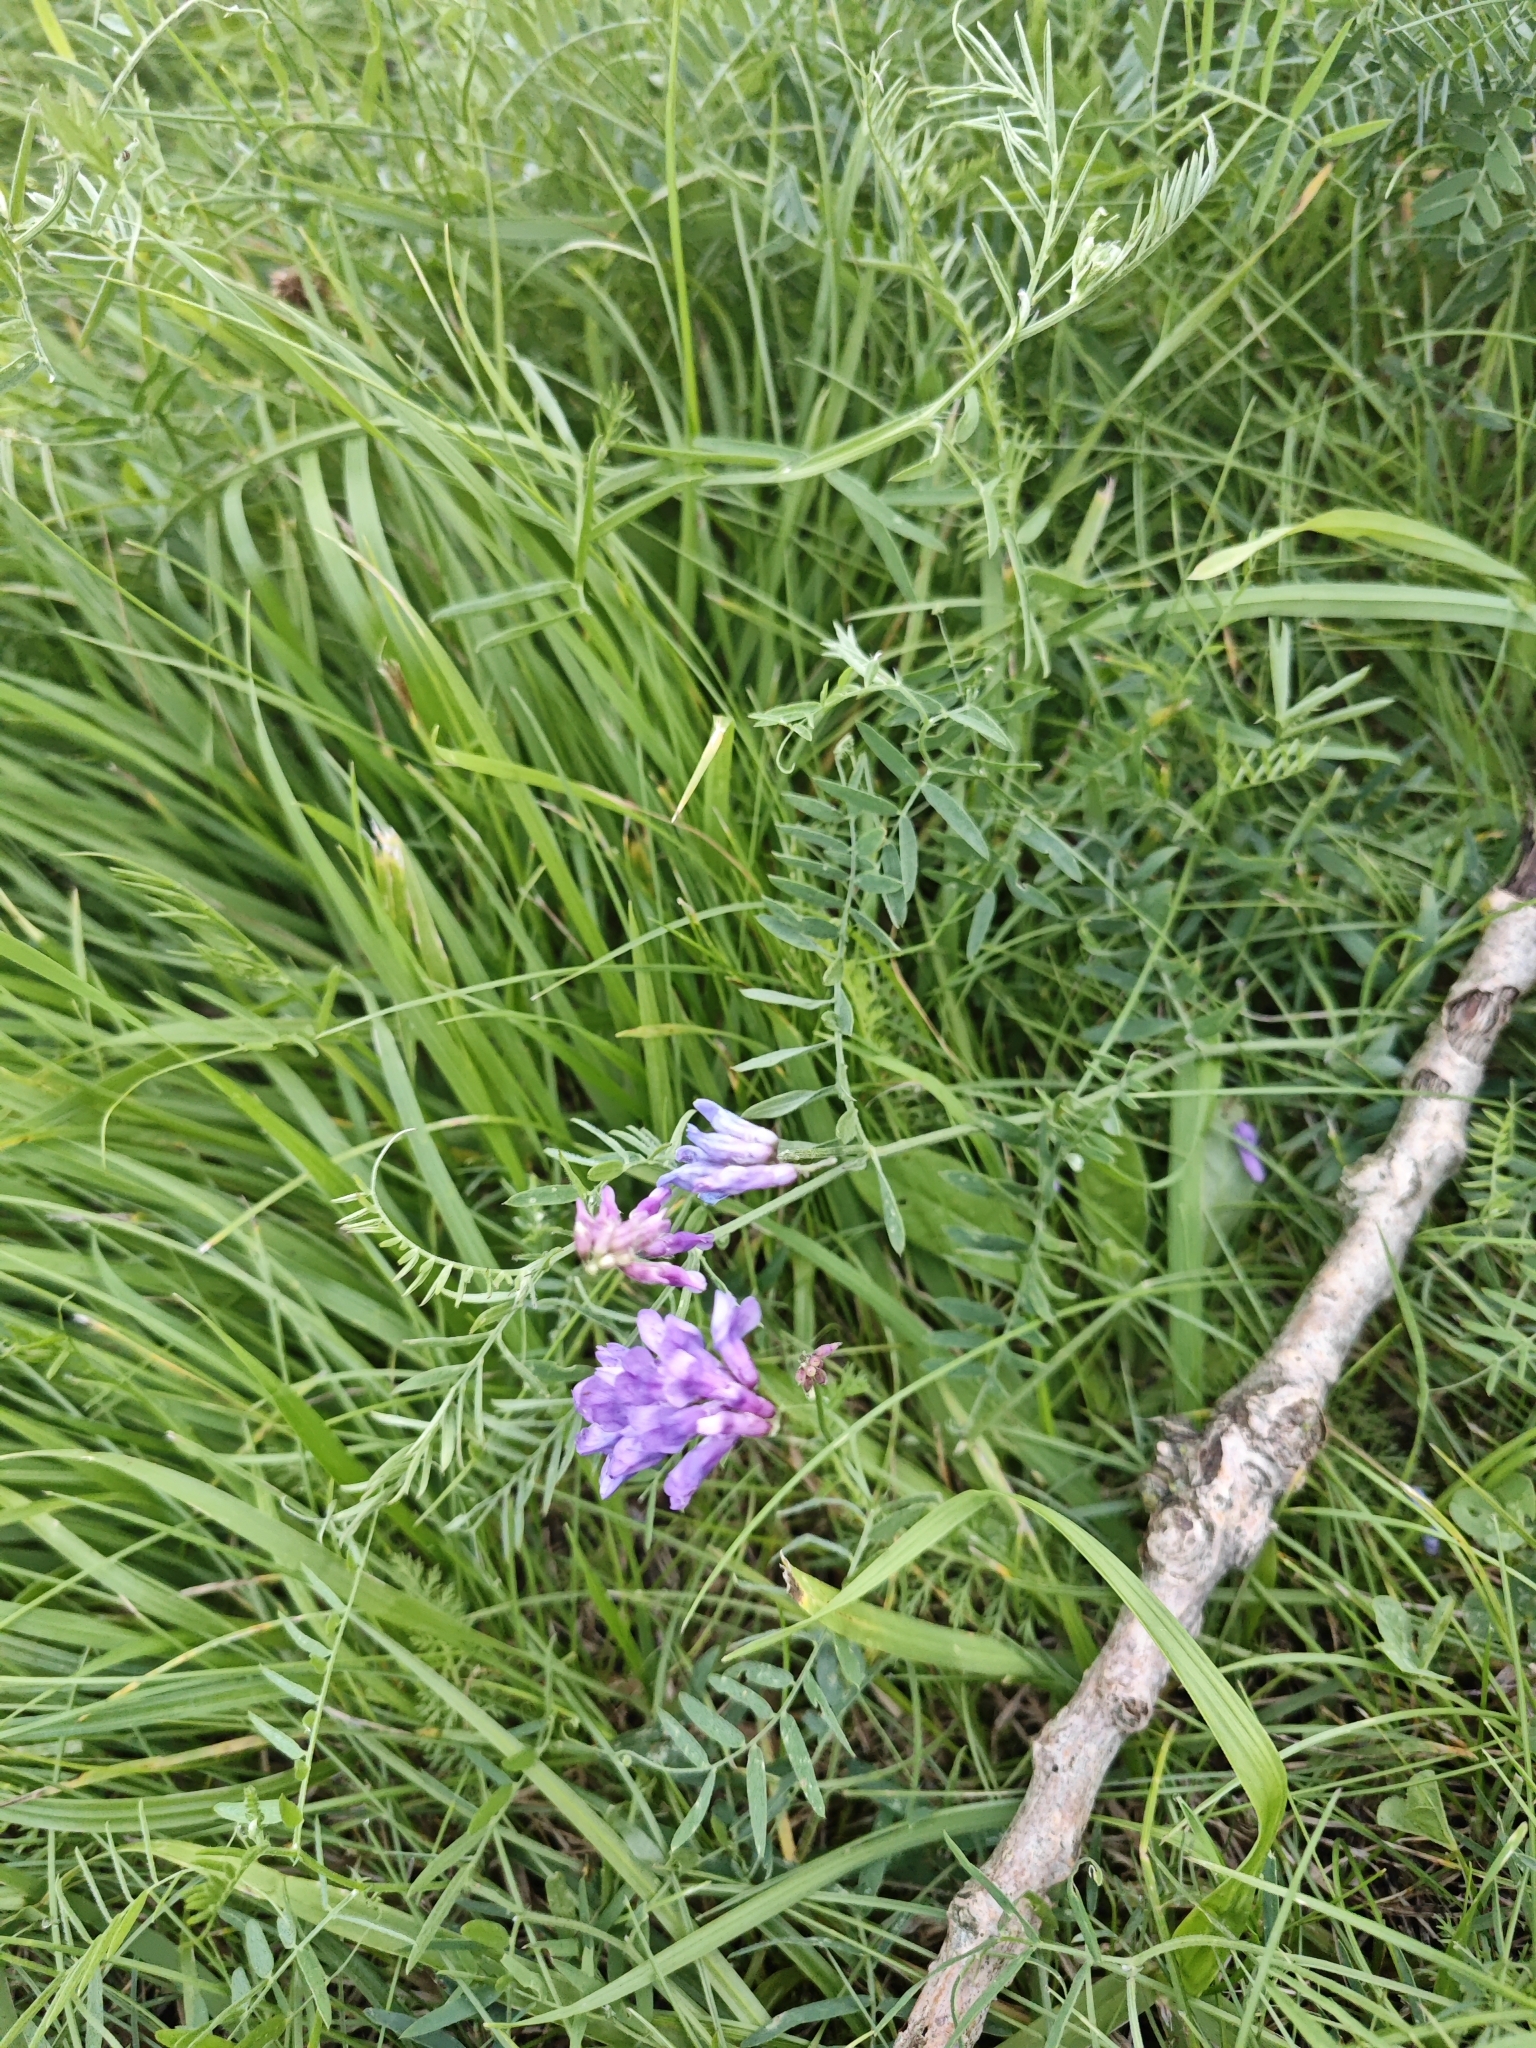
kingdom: Plantae
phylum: Tracheophyta
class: Magnoliopsida
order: Fabales
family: Fabaceae
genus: Vicia
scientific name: Vicia cracca
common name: Bird vetch
